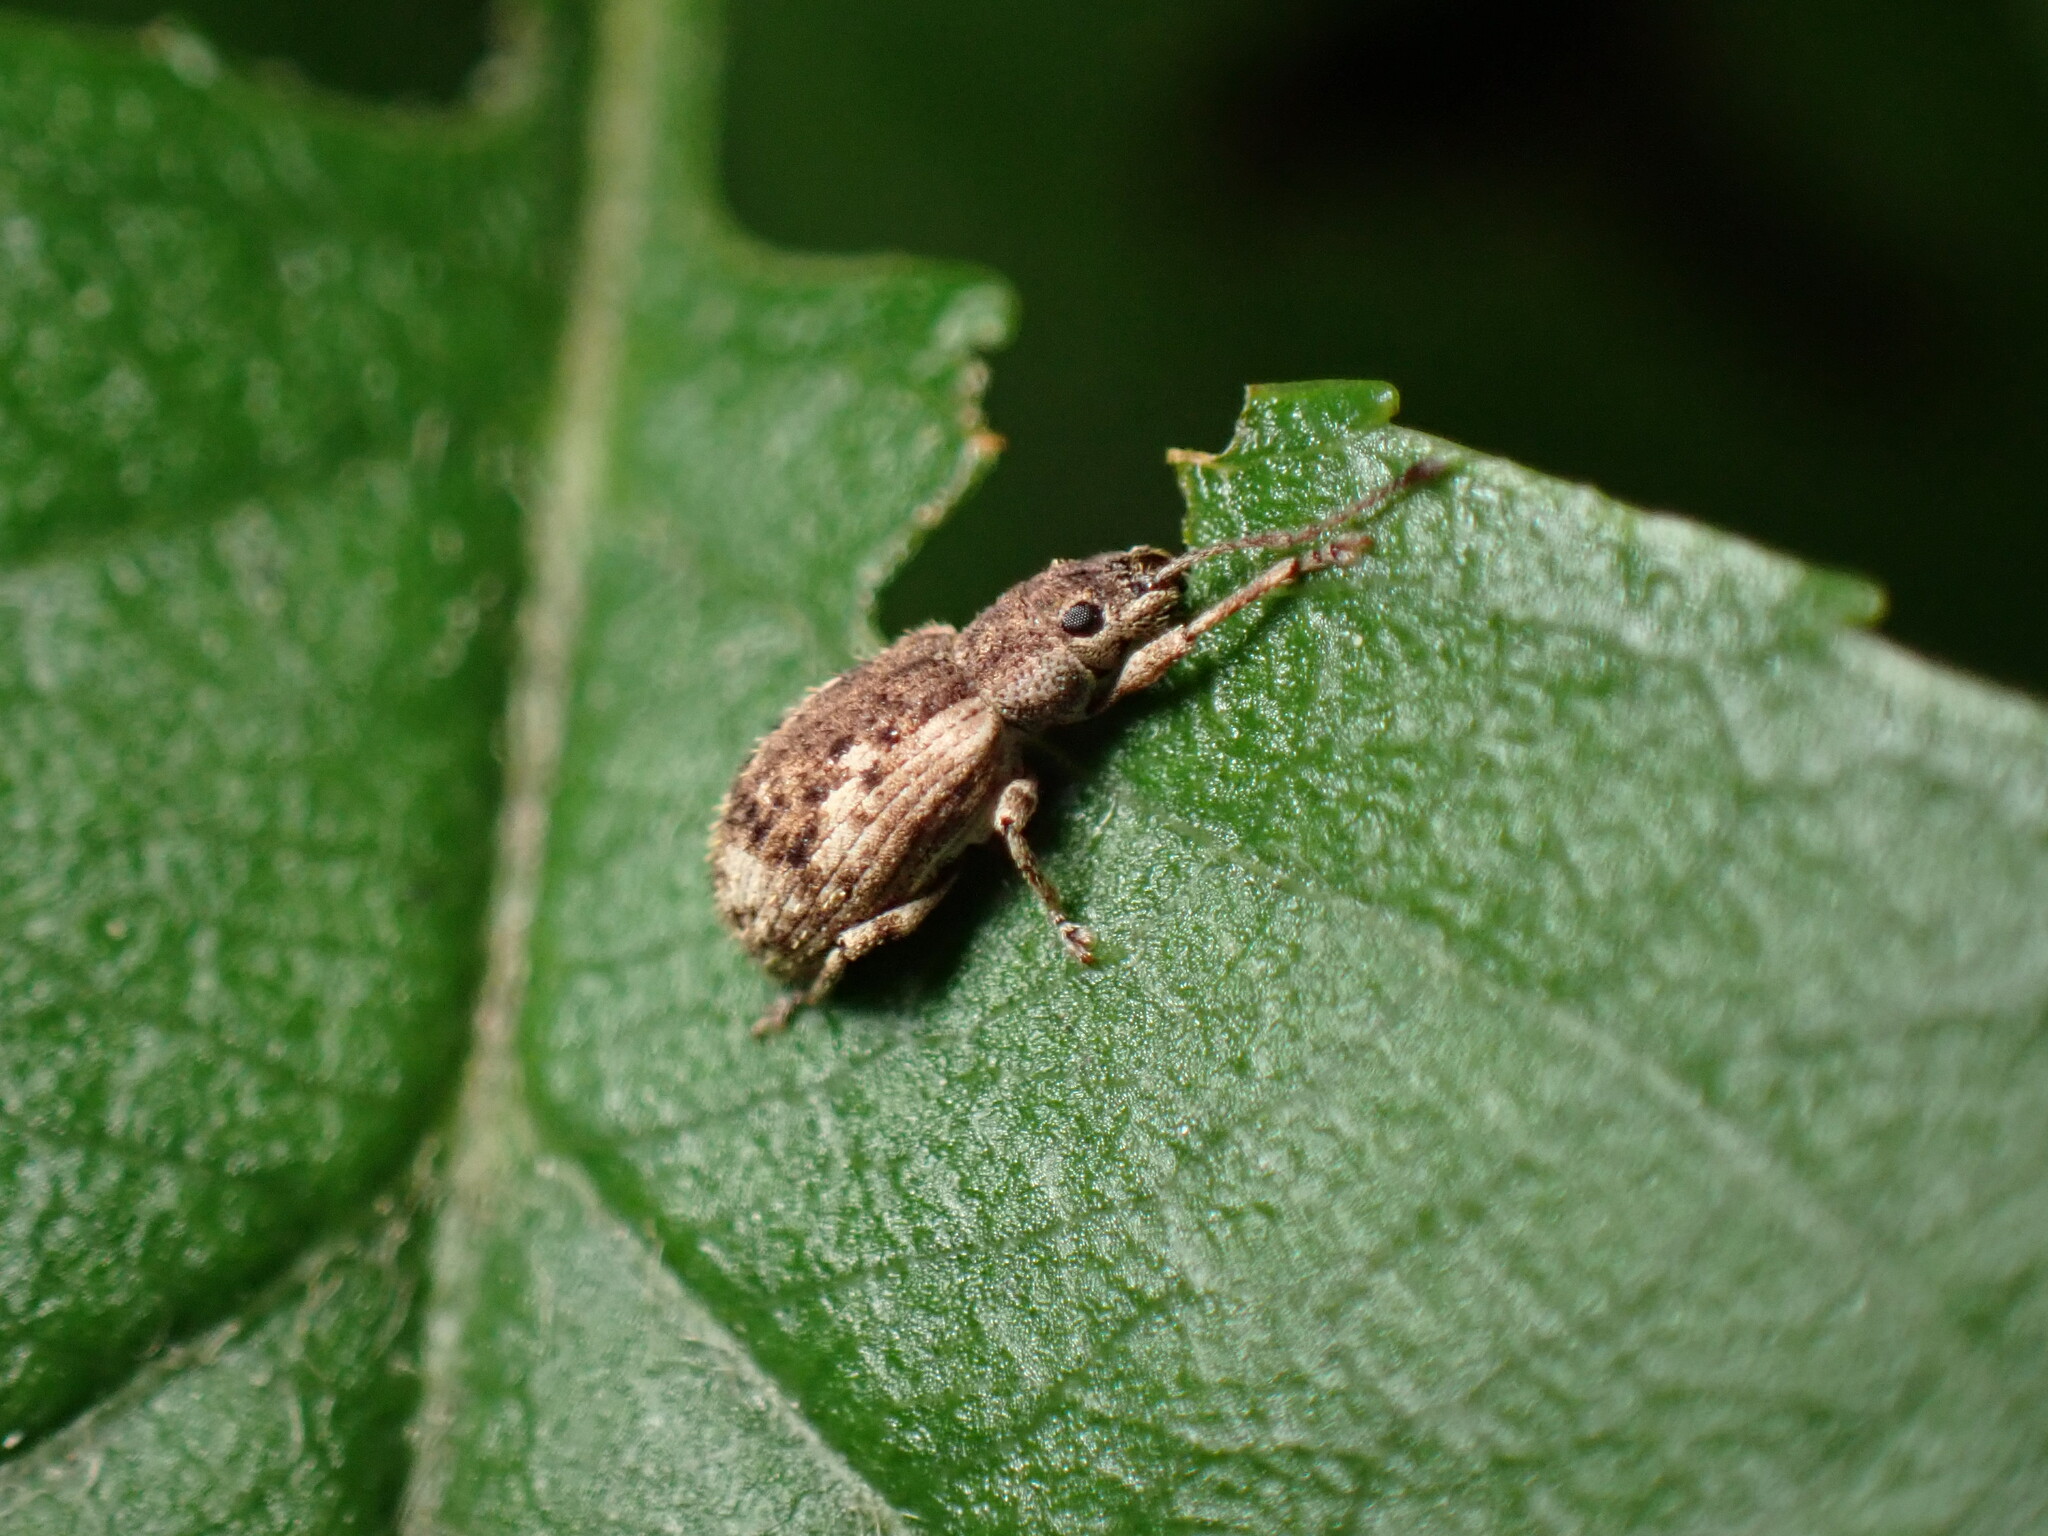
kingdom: Animalia
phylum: Arthropoda
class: Insecta
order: Coleoptera
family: Curculionidae
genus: Pseudoedophrys
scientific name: Pseudoedophrys hilleri
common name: Weevil
